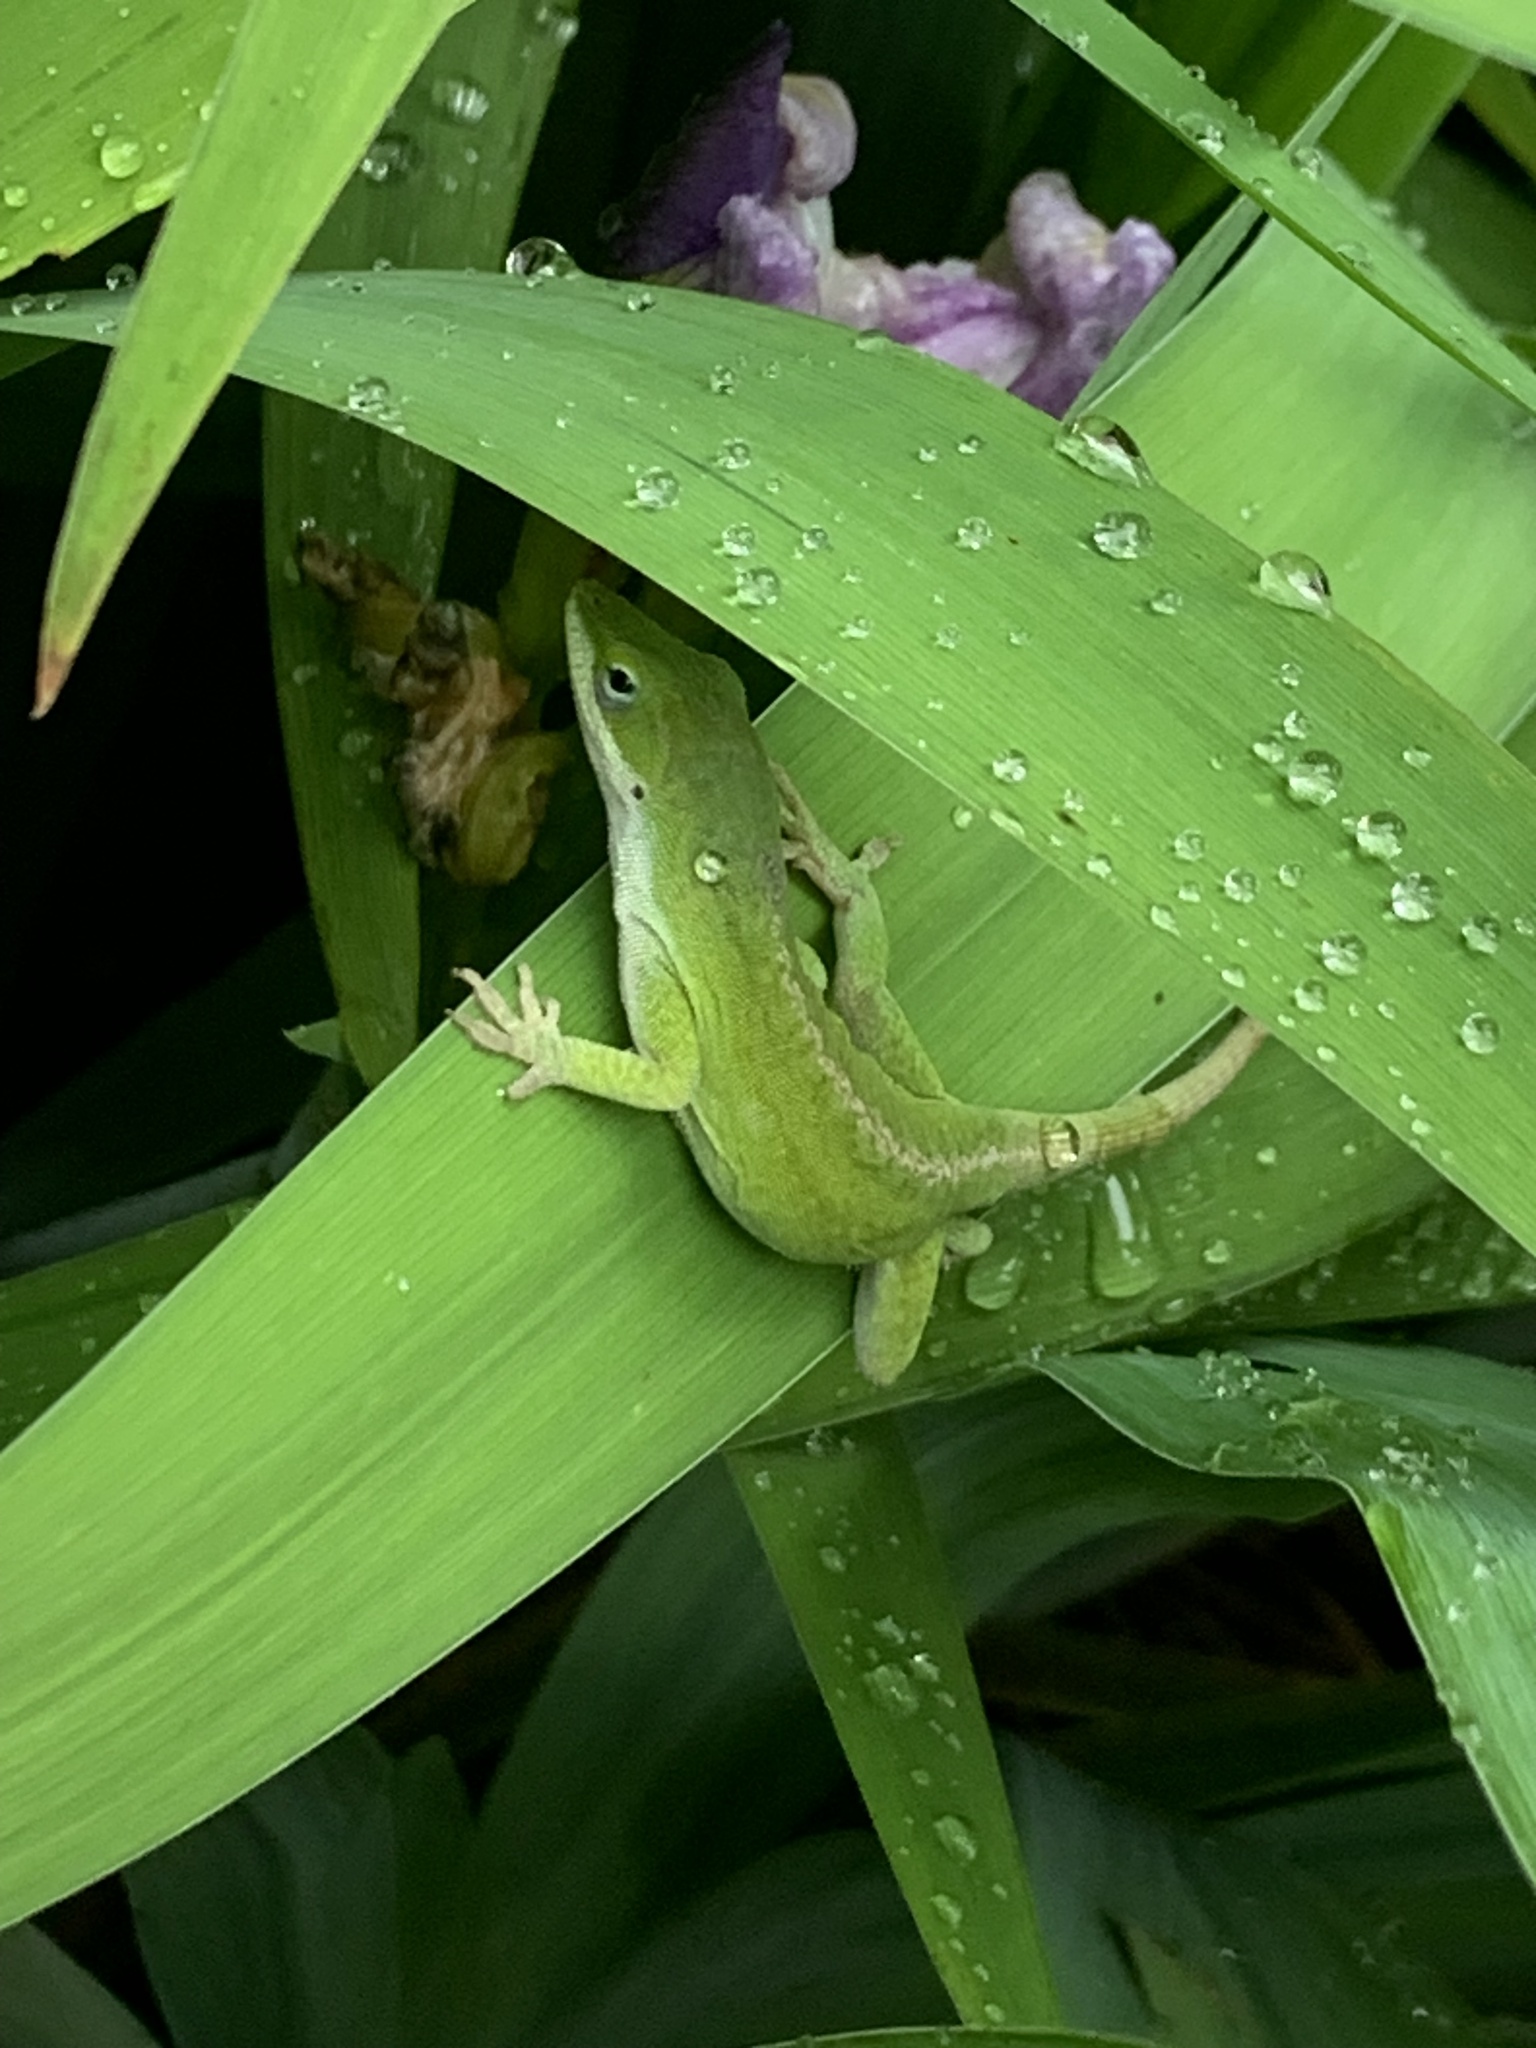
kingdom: Animalia
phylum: Chordata
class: Squamata
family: Dactyloidae
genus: Anolis
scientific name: Anolis carolinensis
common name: Green anole
